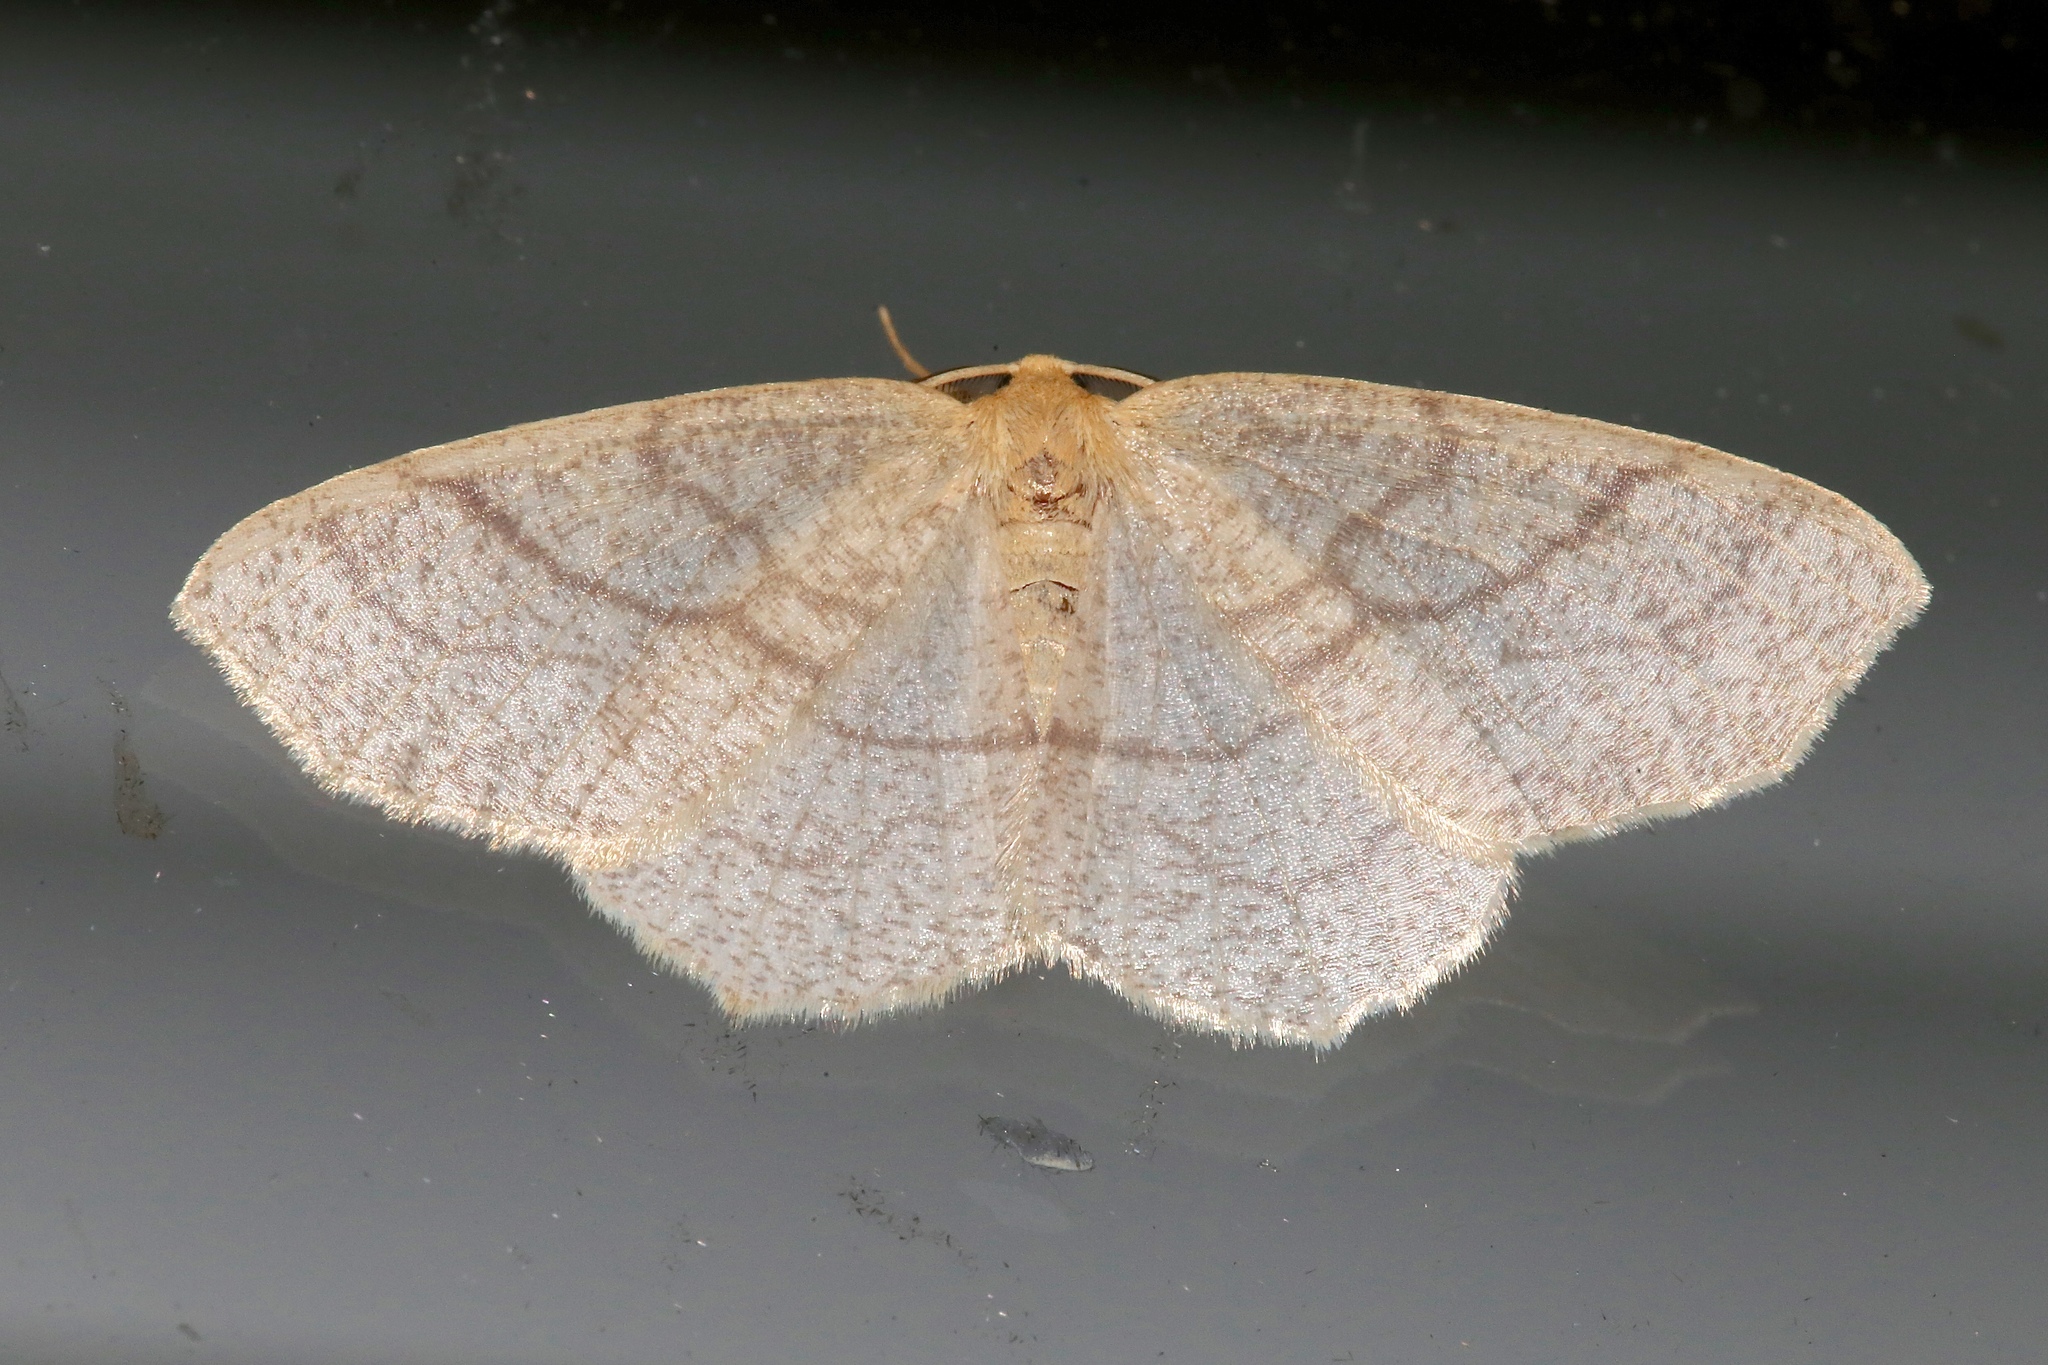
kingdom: Animalia
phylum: Arthropoda
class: Insecta
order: Lepidoptera
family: Geometridae
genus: Besma
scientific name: Besma quercivoraria
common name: Oak besma
